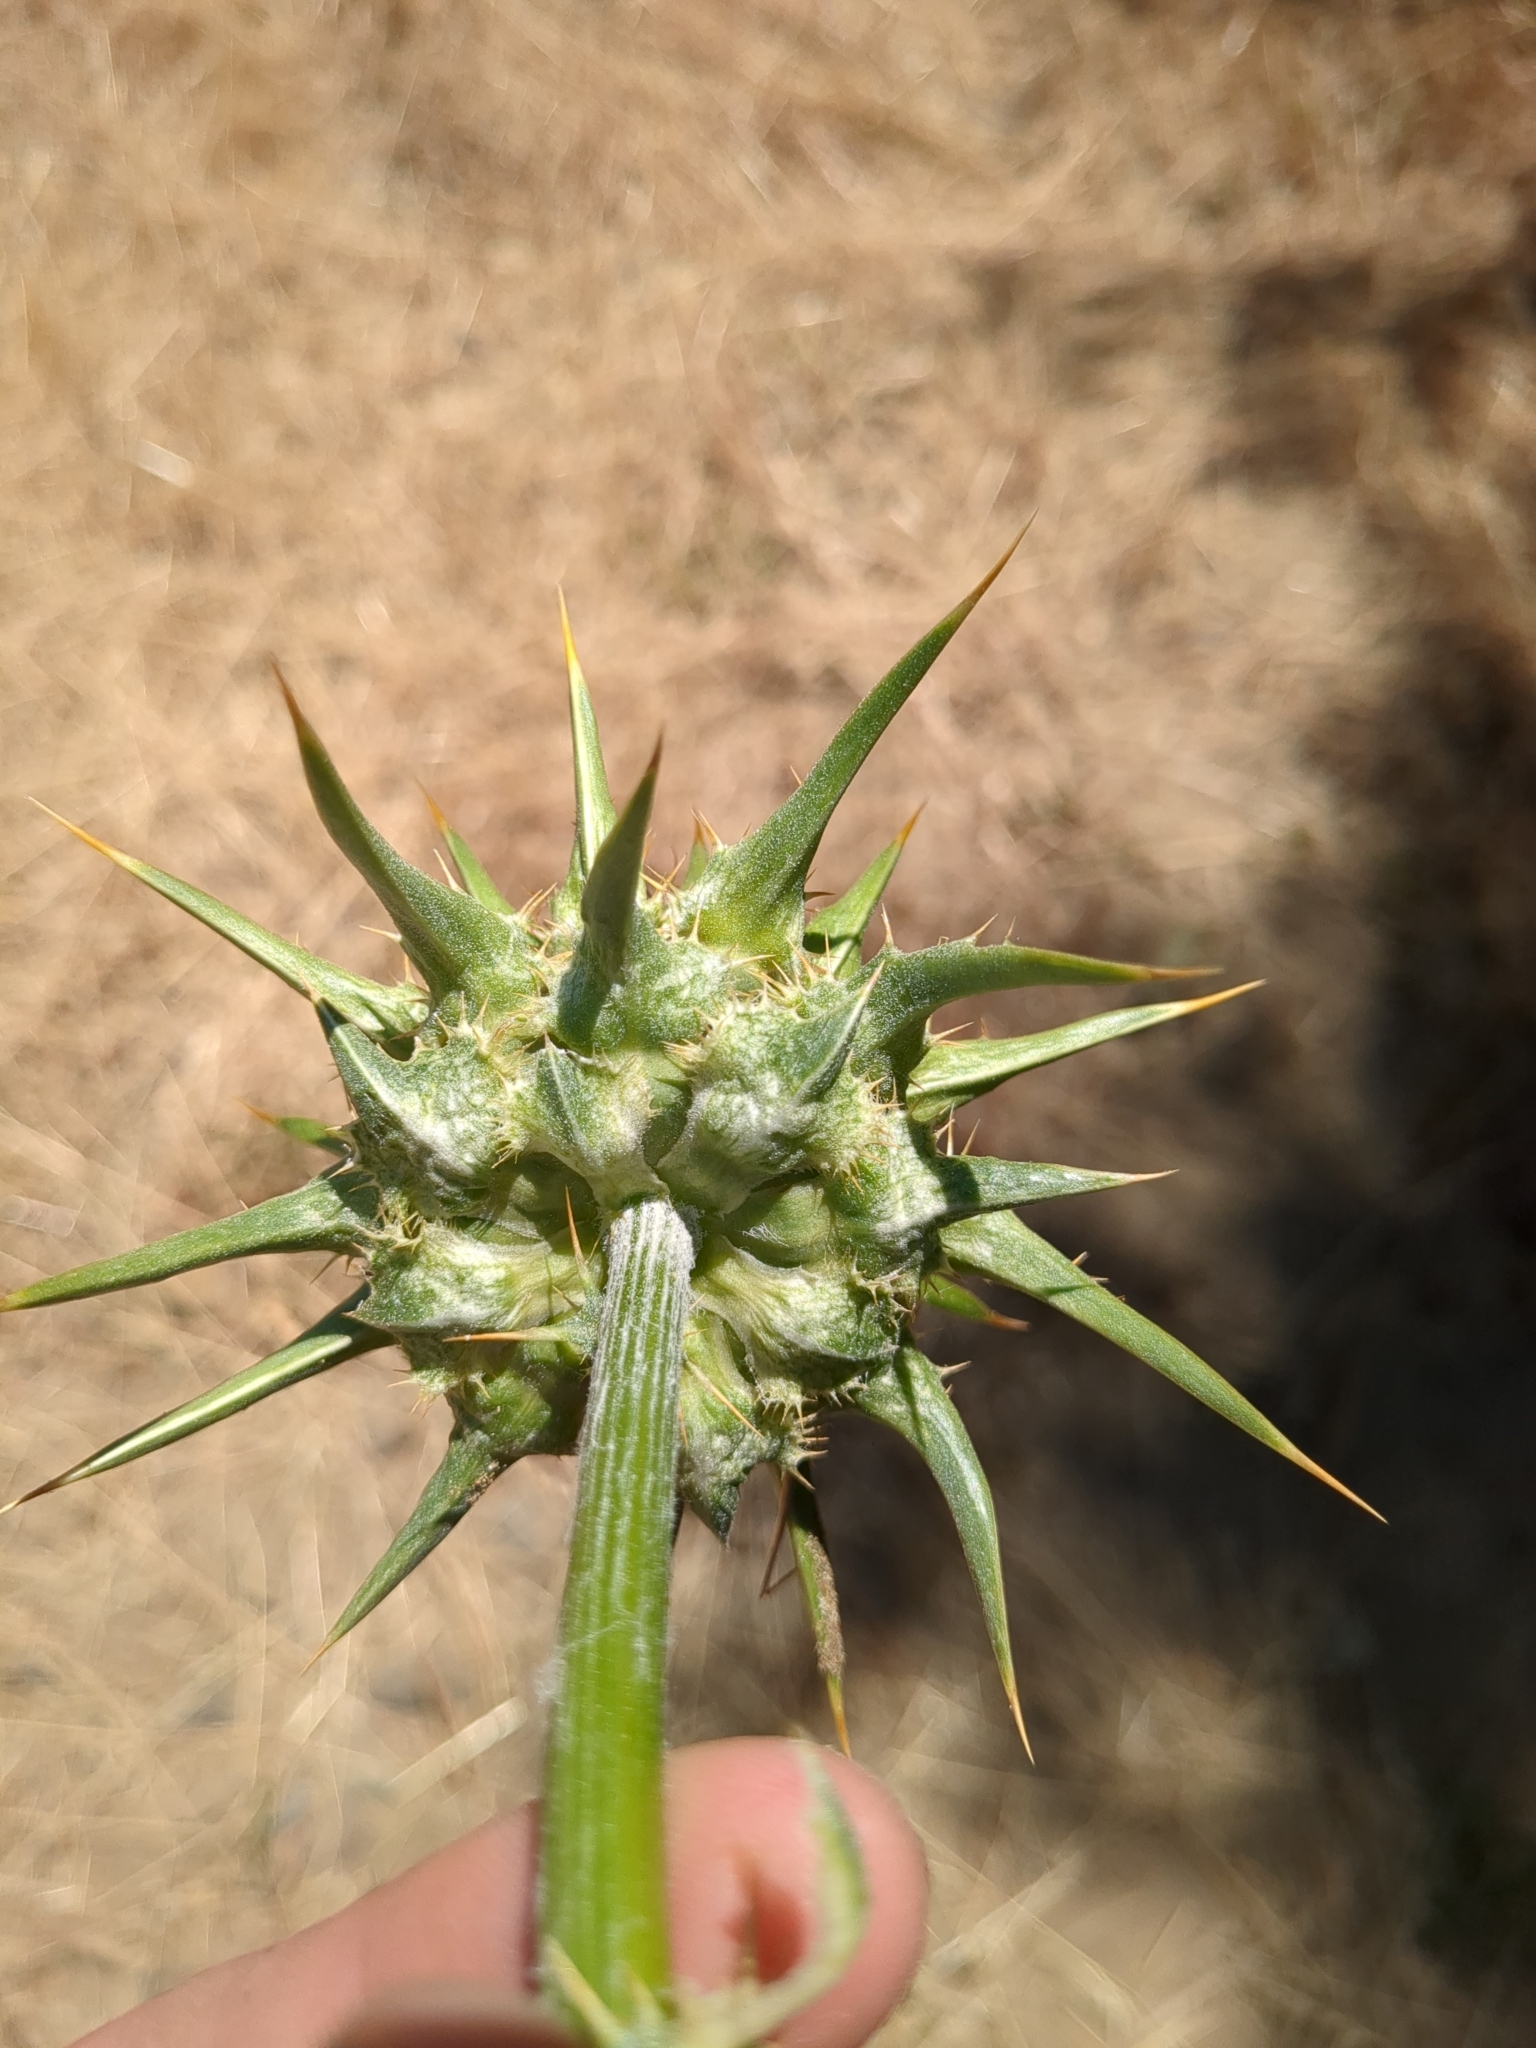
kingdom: Plantae
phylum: Tracheophyta
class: Magnoliopsida
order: Asterales
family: Asteraceae
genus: Silybum
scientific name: Silybum marianum
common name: Milk thistle
